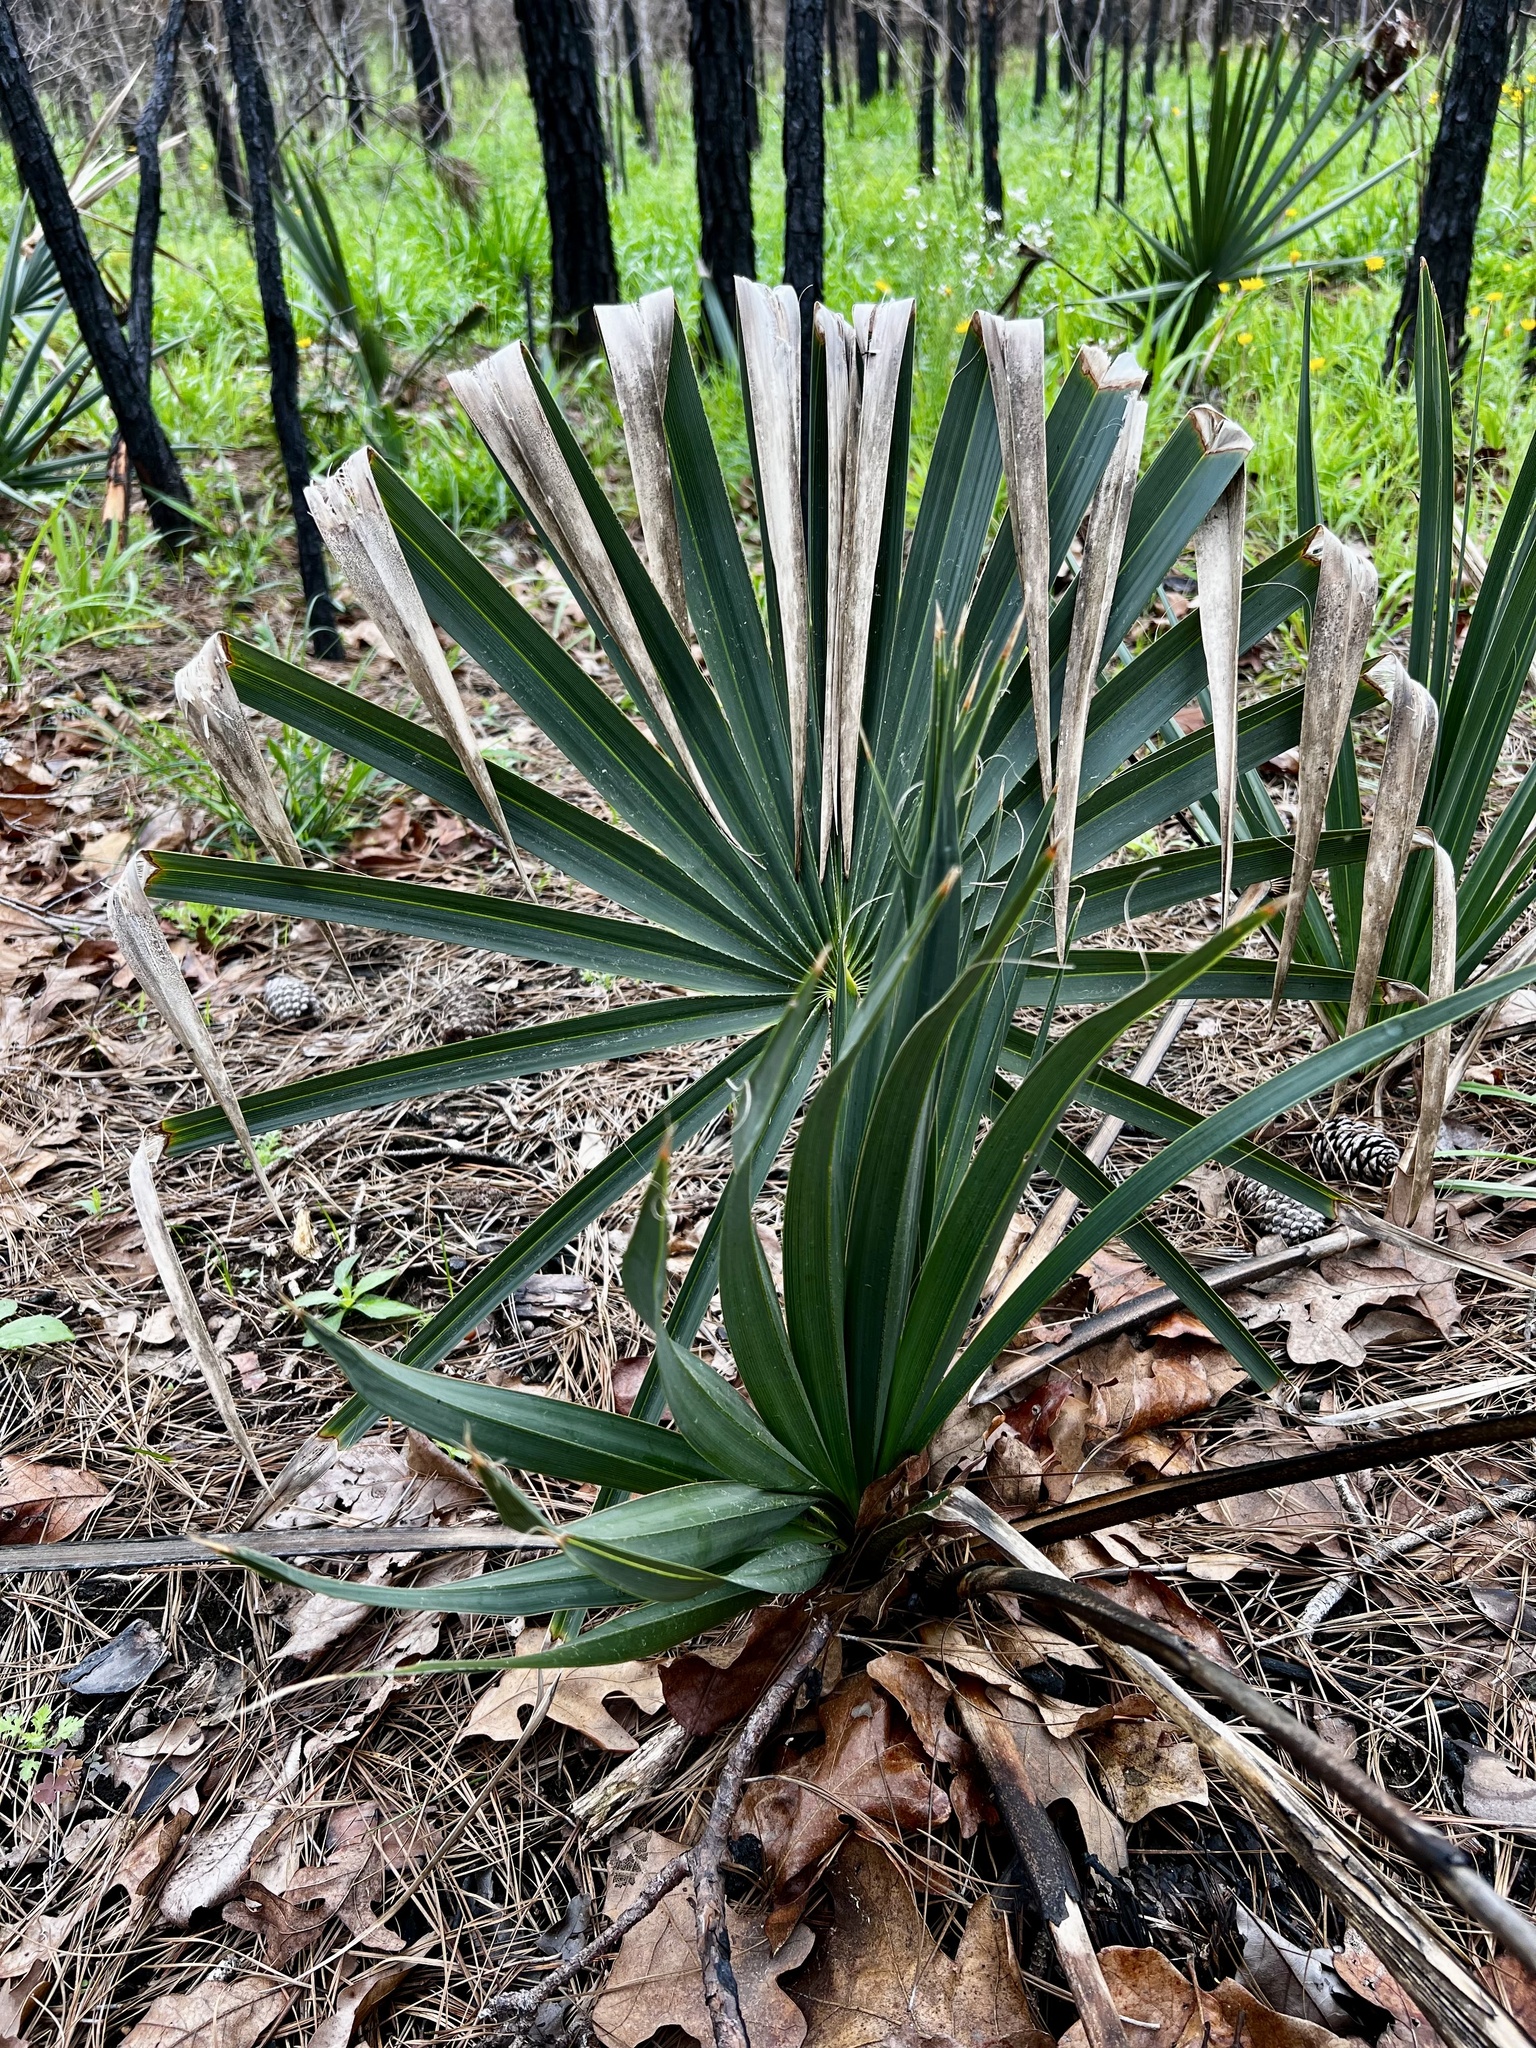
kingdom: Plantae
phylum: Tracheophyta
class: Liliopsida
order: Arecales
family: Arecaceae
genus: Sabal
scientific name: Sabal minor
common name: Dwarf palmetto
